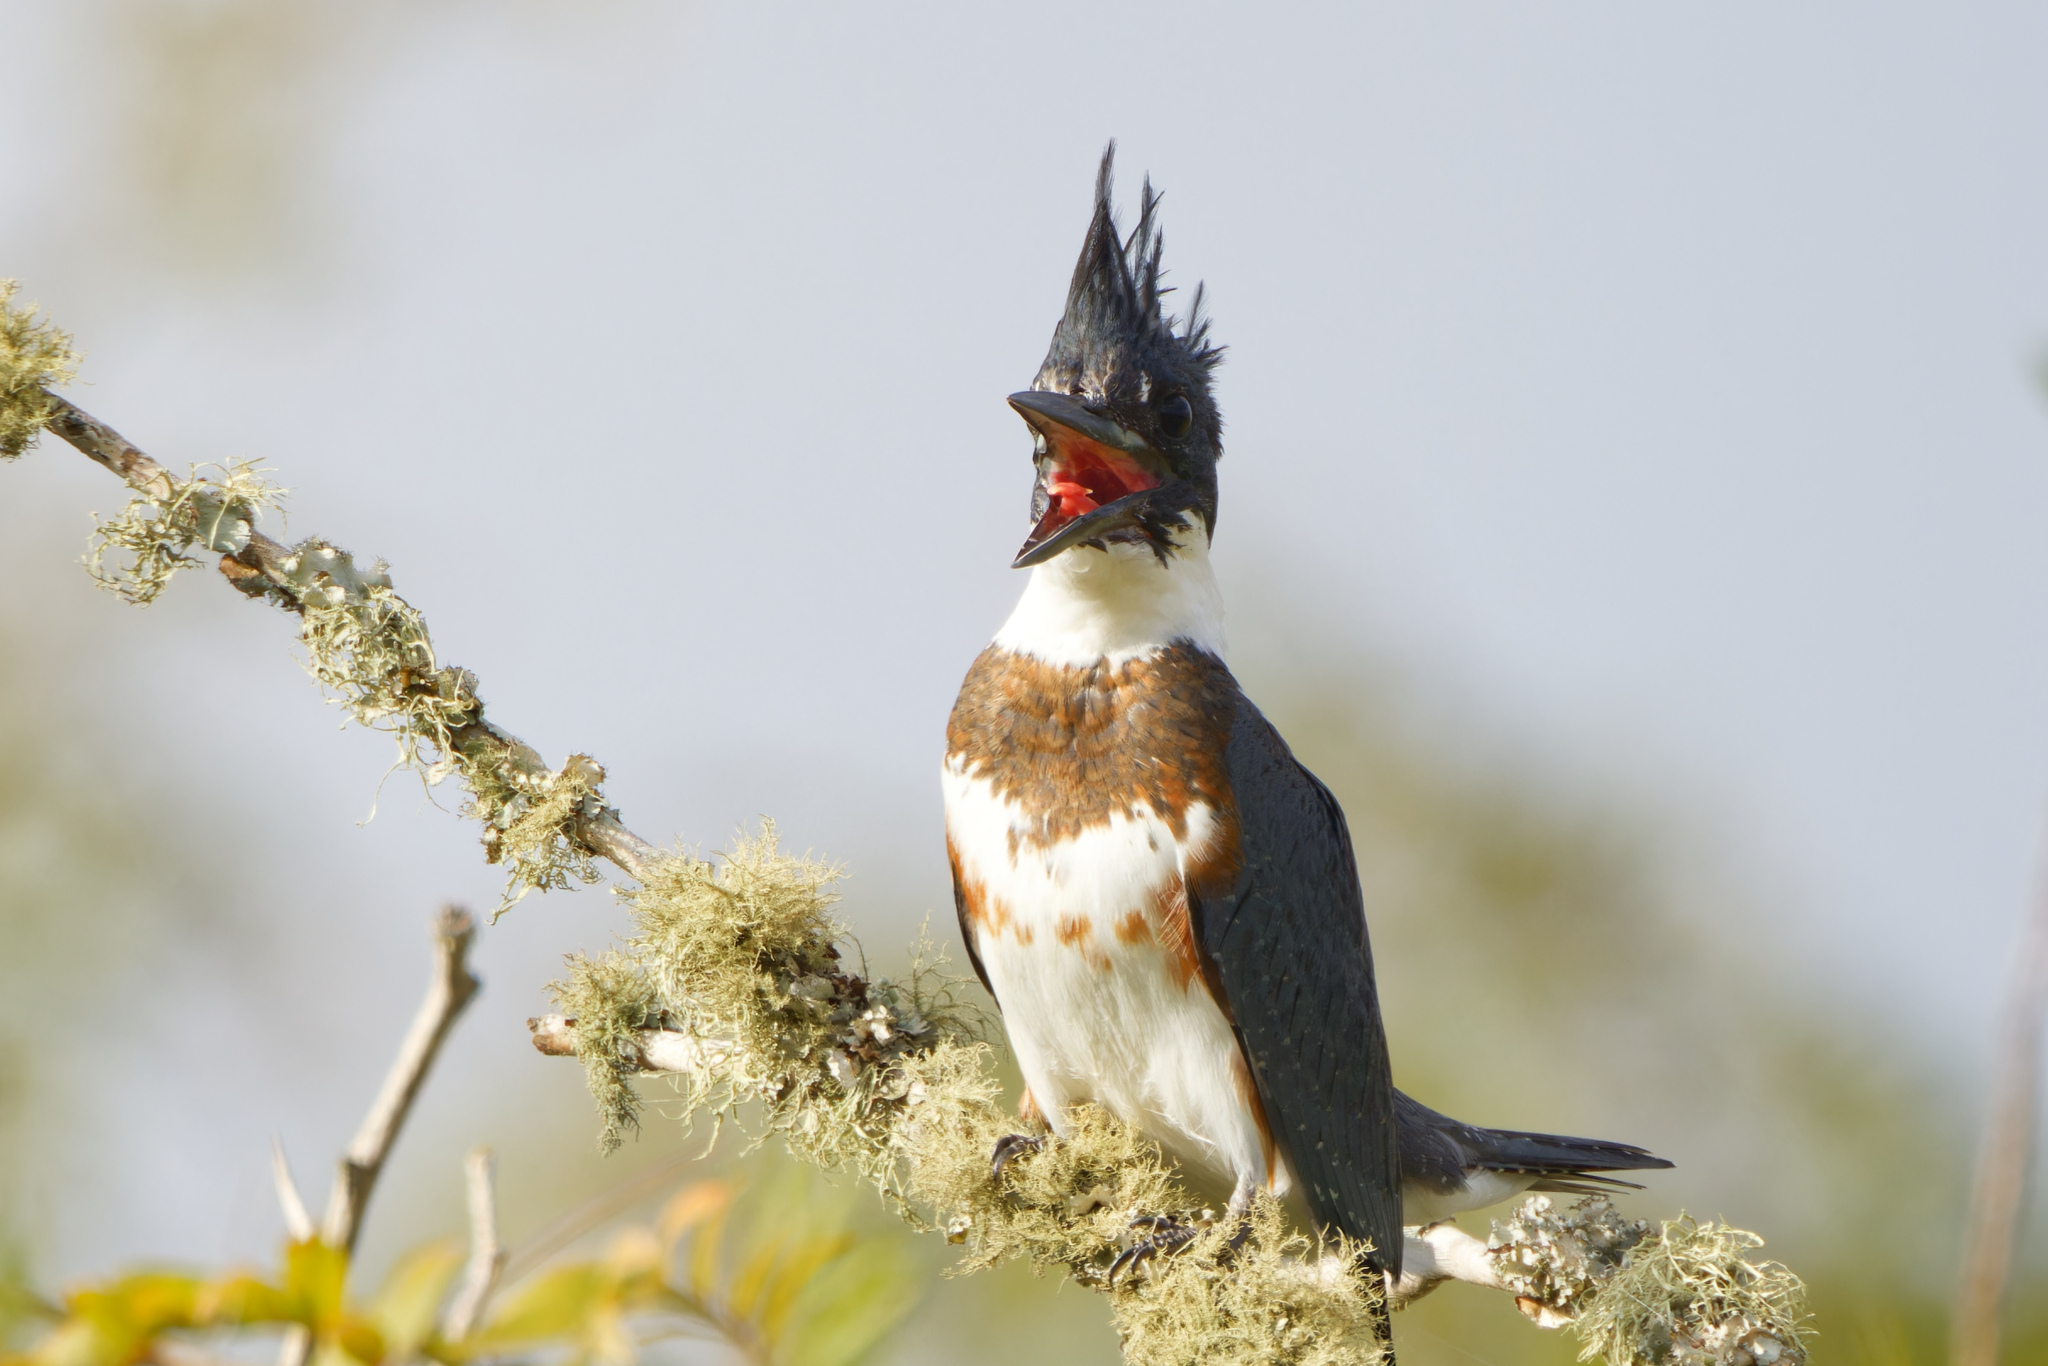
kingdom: Animalia
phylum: Chordata
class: Aves
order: Coraciiformes
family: Alcedinidae
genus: Megaceryle
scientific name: Megaceryle alcyon
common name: Belted kingfisher
